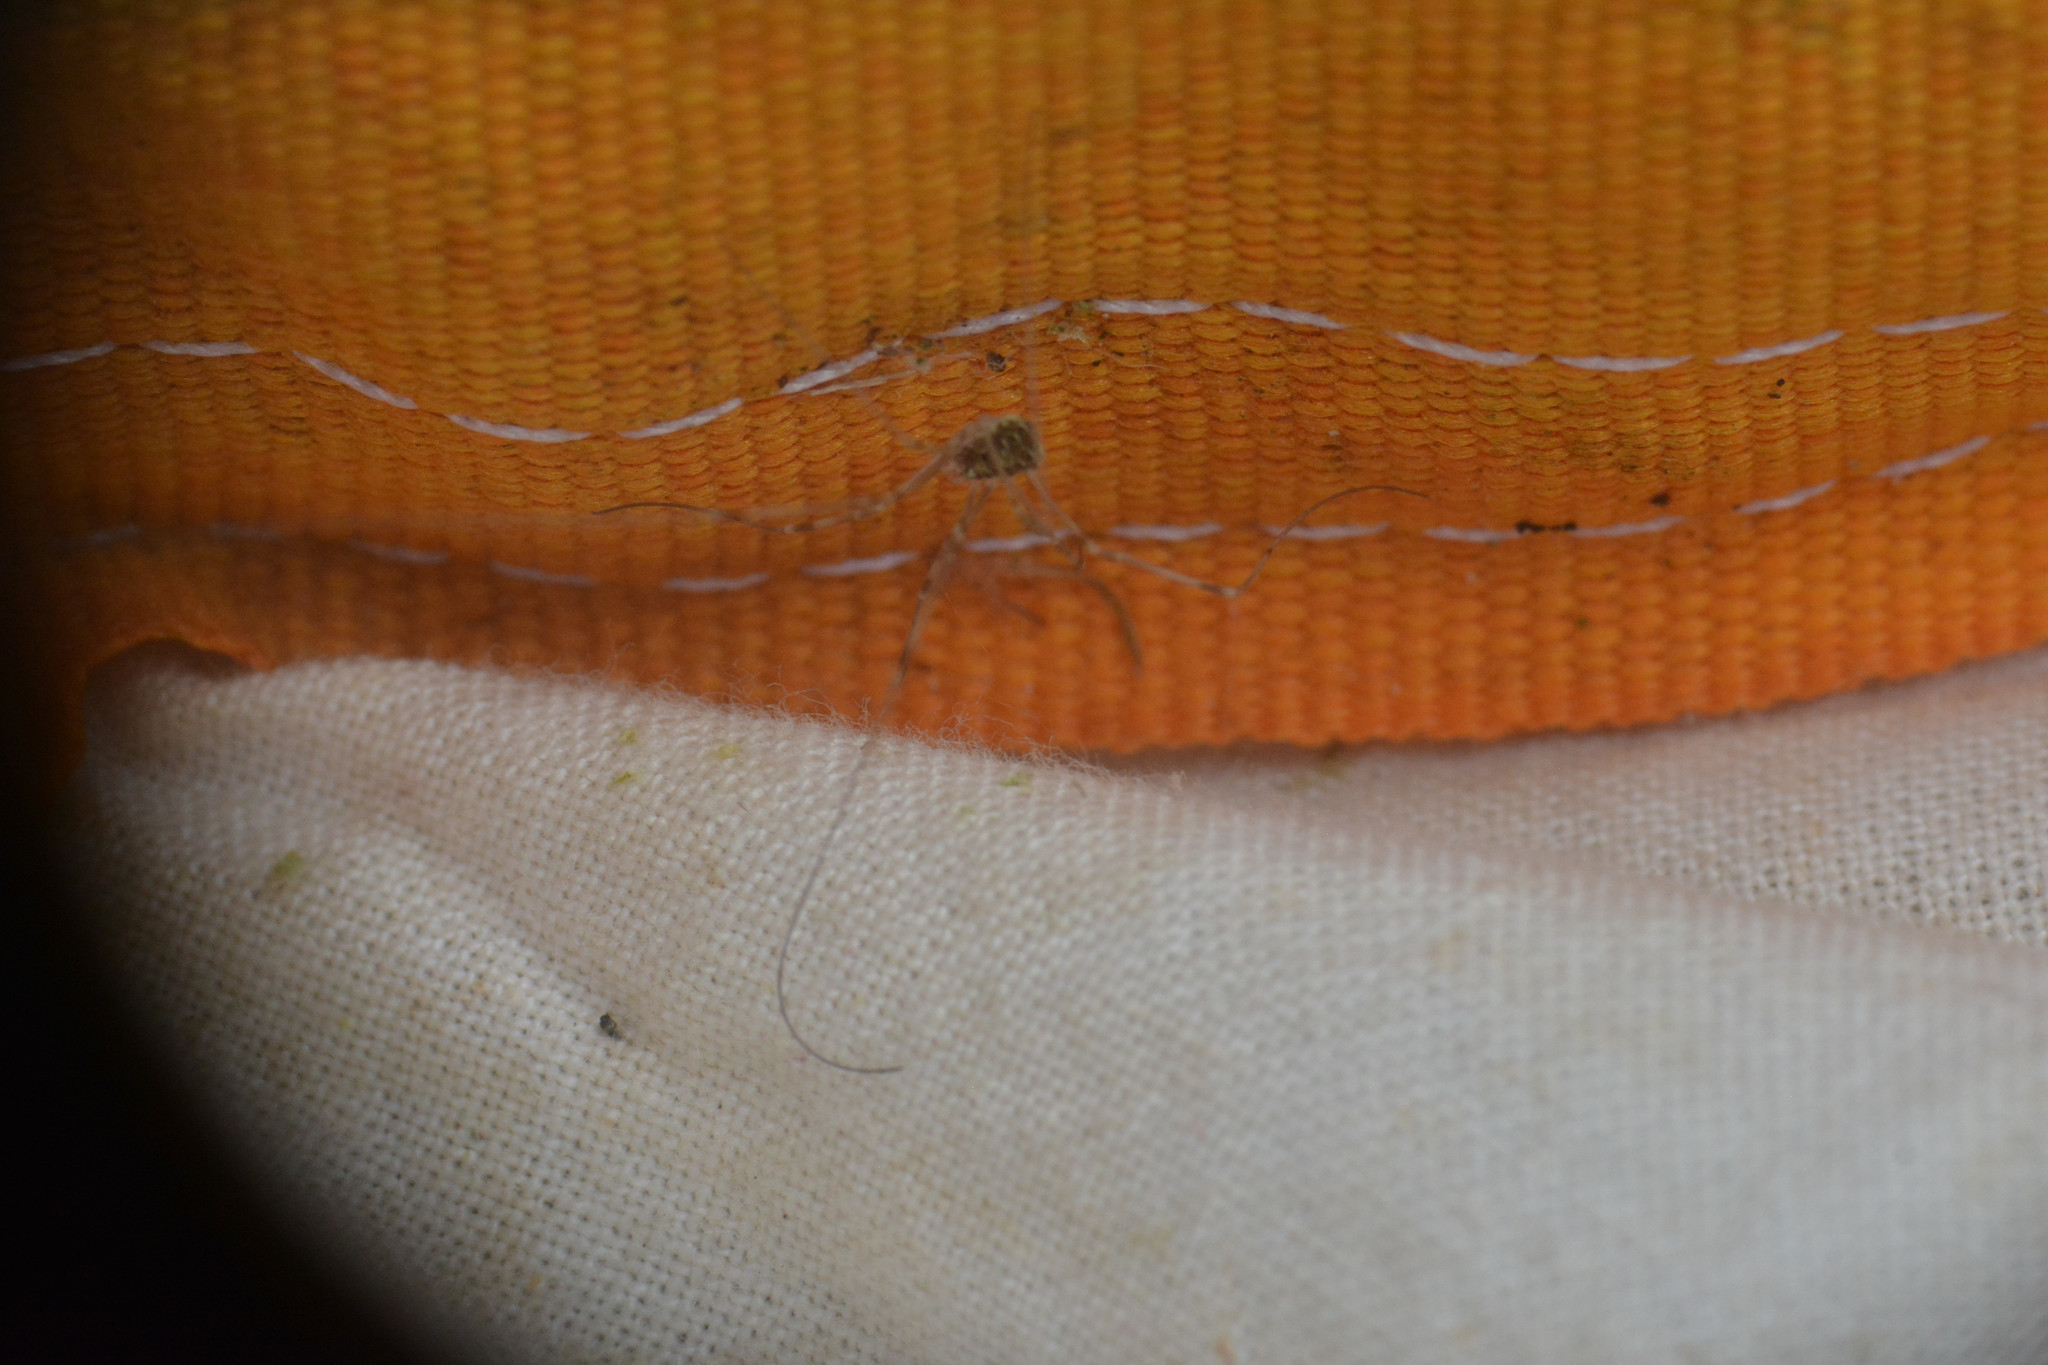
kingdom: Animalia
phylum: Arthropoda
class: Arachnida
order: Opiliones
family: Phalangiidae
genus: Opilio
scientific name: Opilio canestrinii
